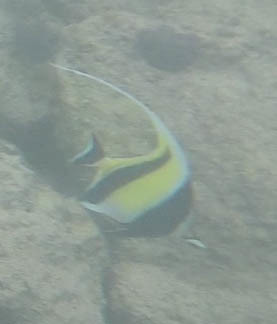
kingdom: Animalia
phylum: Chordata
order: Perciformes
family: Zanclidae
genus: Zanclus
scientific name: Zanclus cornutus
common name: Moorish idol
